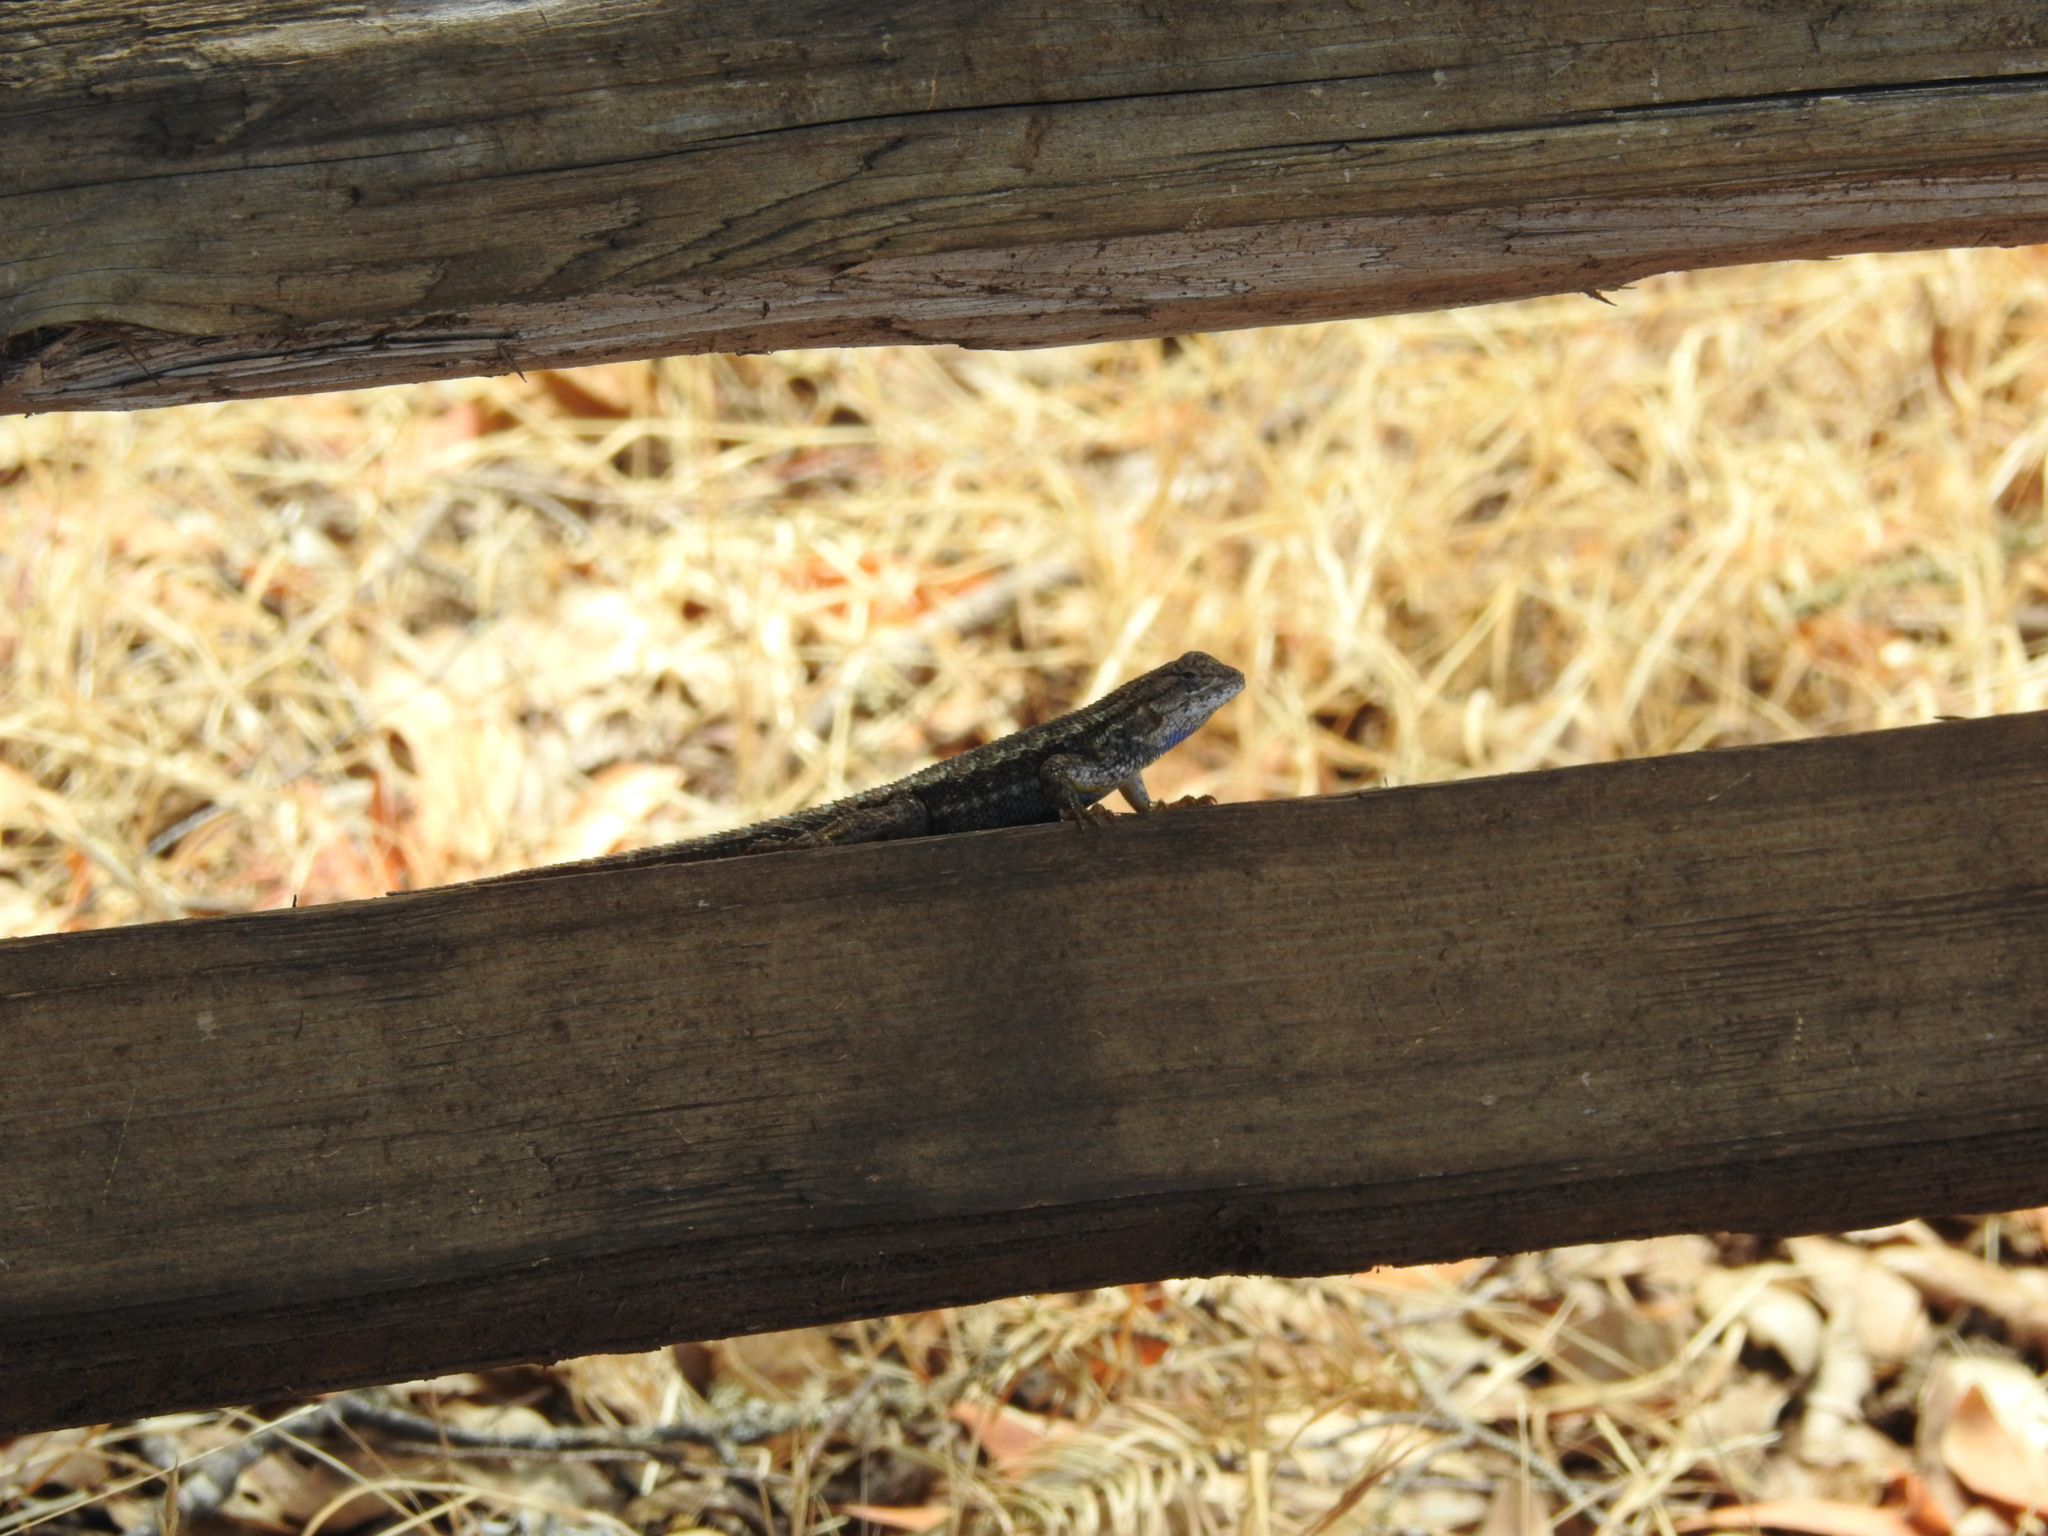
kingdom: Animalia
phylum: Chordata
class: Squamata
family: Phrynosomatidae
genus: Sceloporus
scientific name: Sceloporus occidentalis
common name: Western fence lizard
